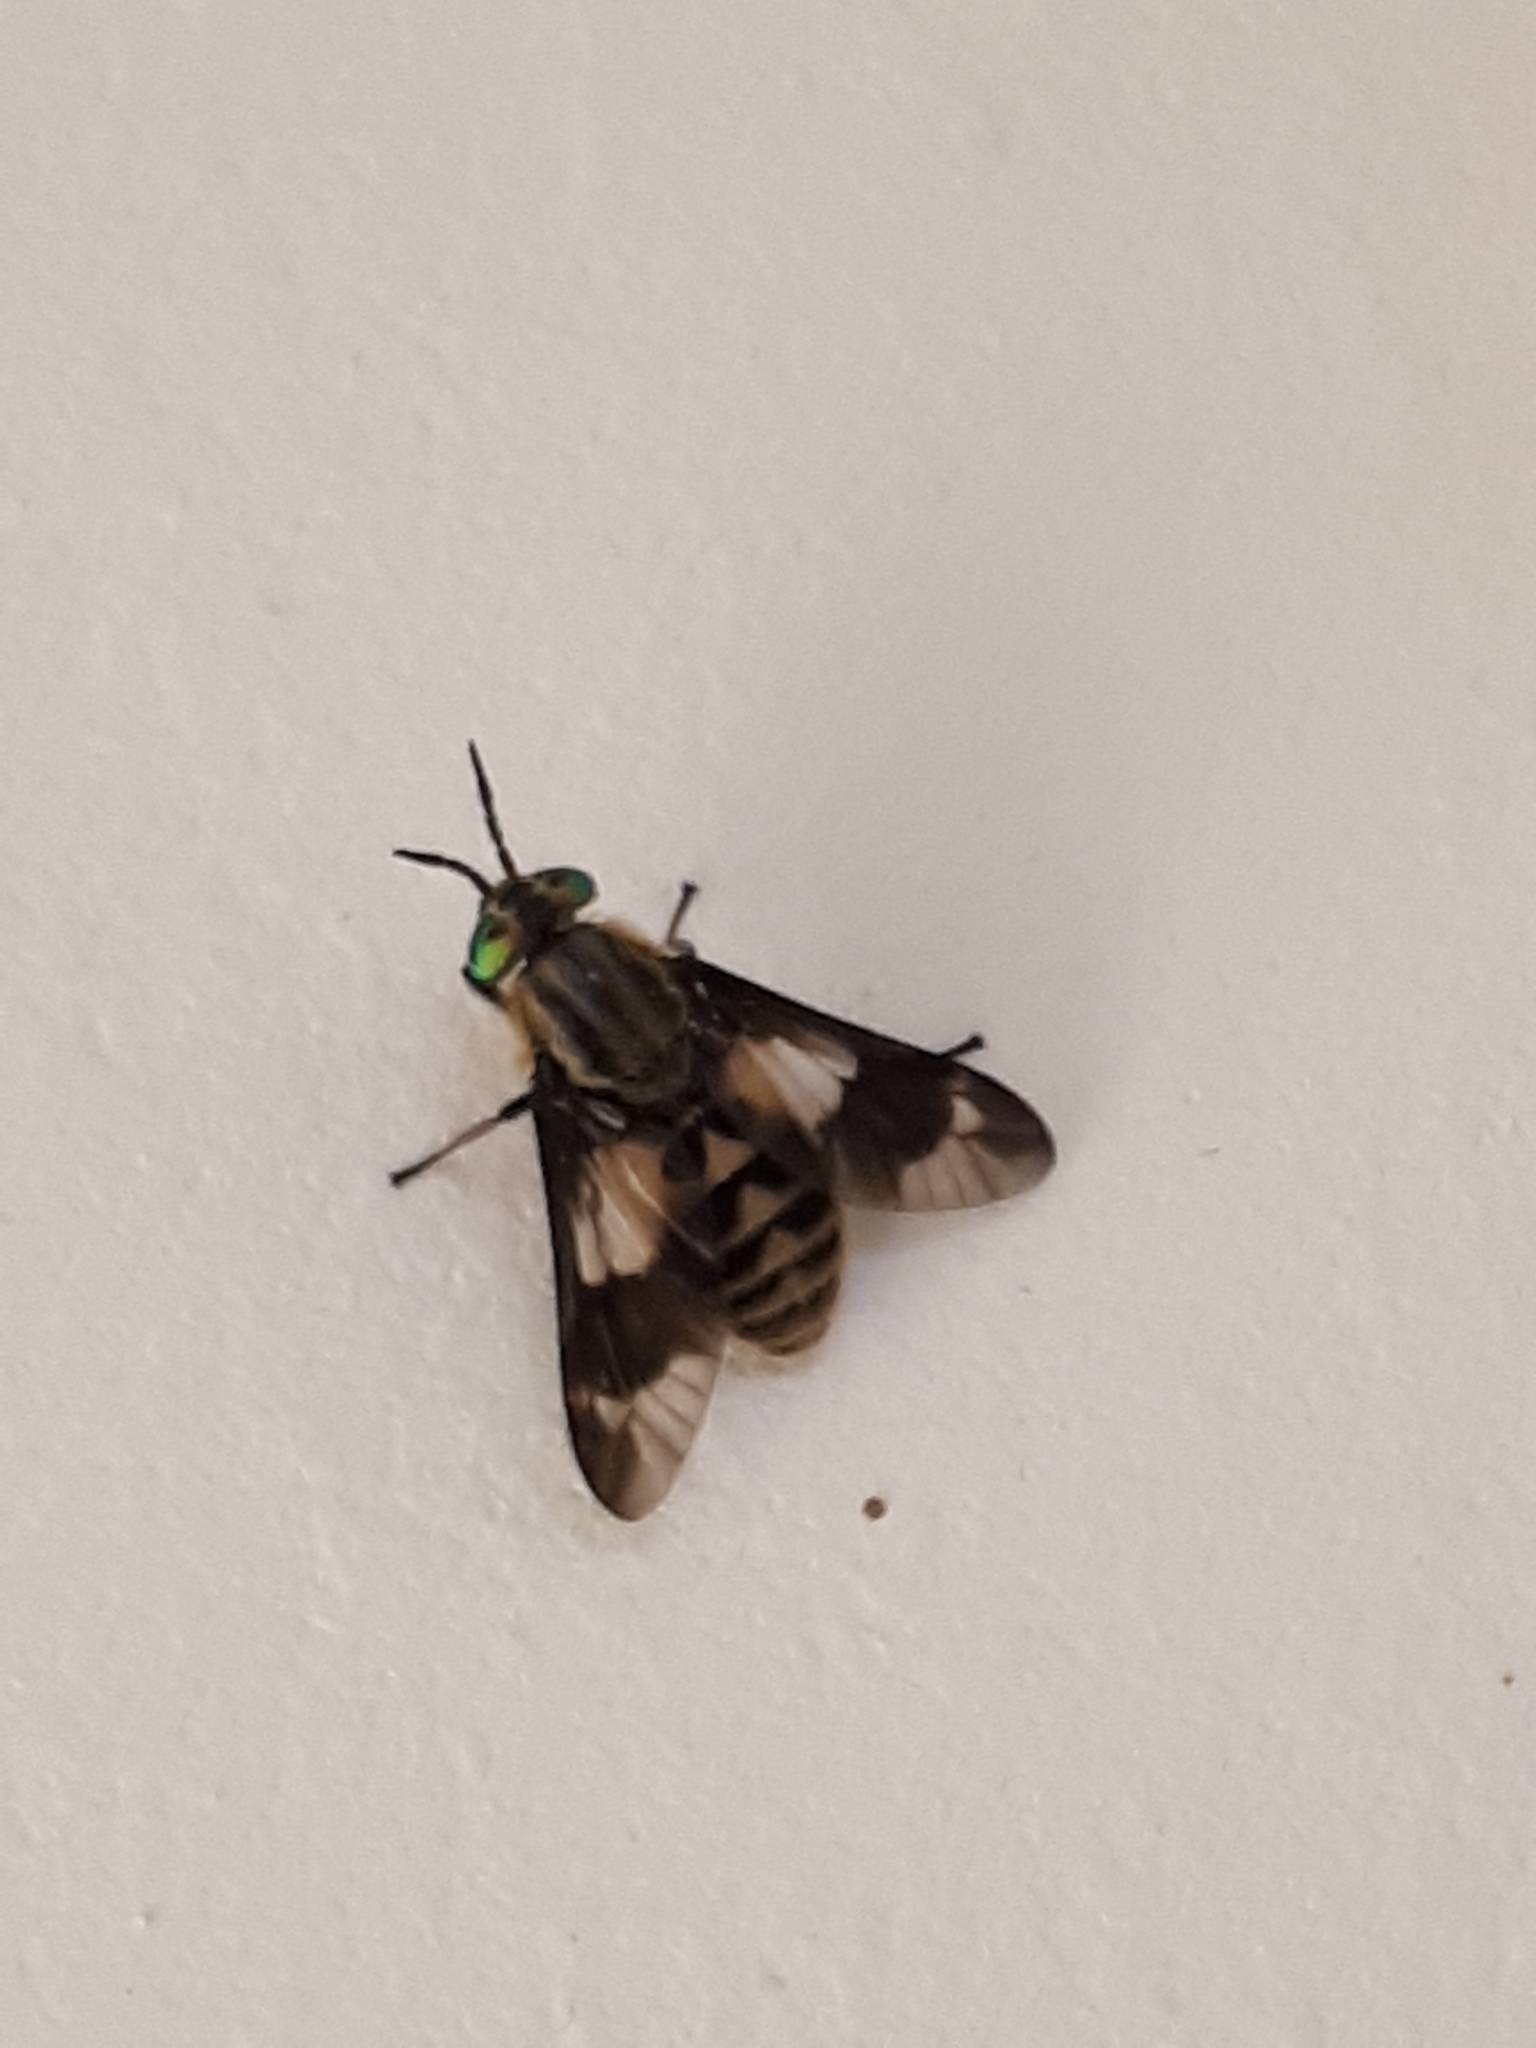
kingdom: Animalia
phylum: Arthropoda
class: Insecta
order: Diptera
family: Tabanidae
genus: Chrysops
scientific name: Chrysops relictus
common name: Twin-lobed deerfly
